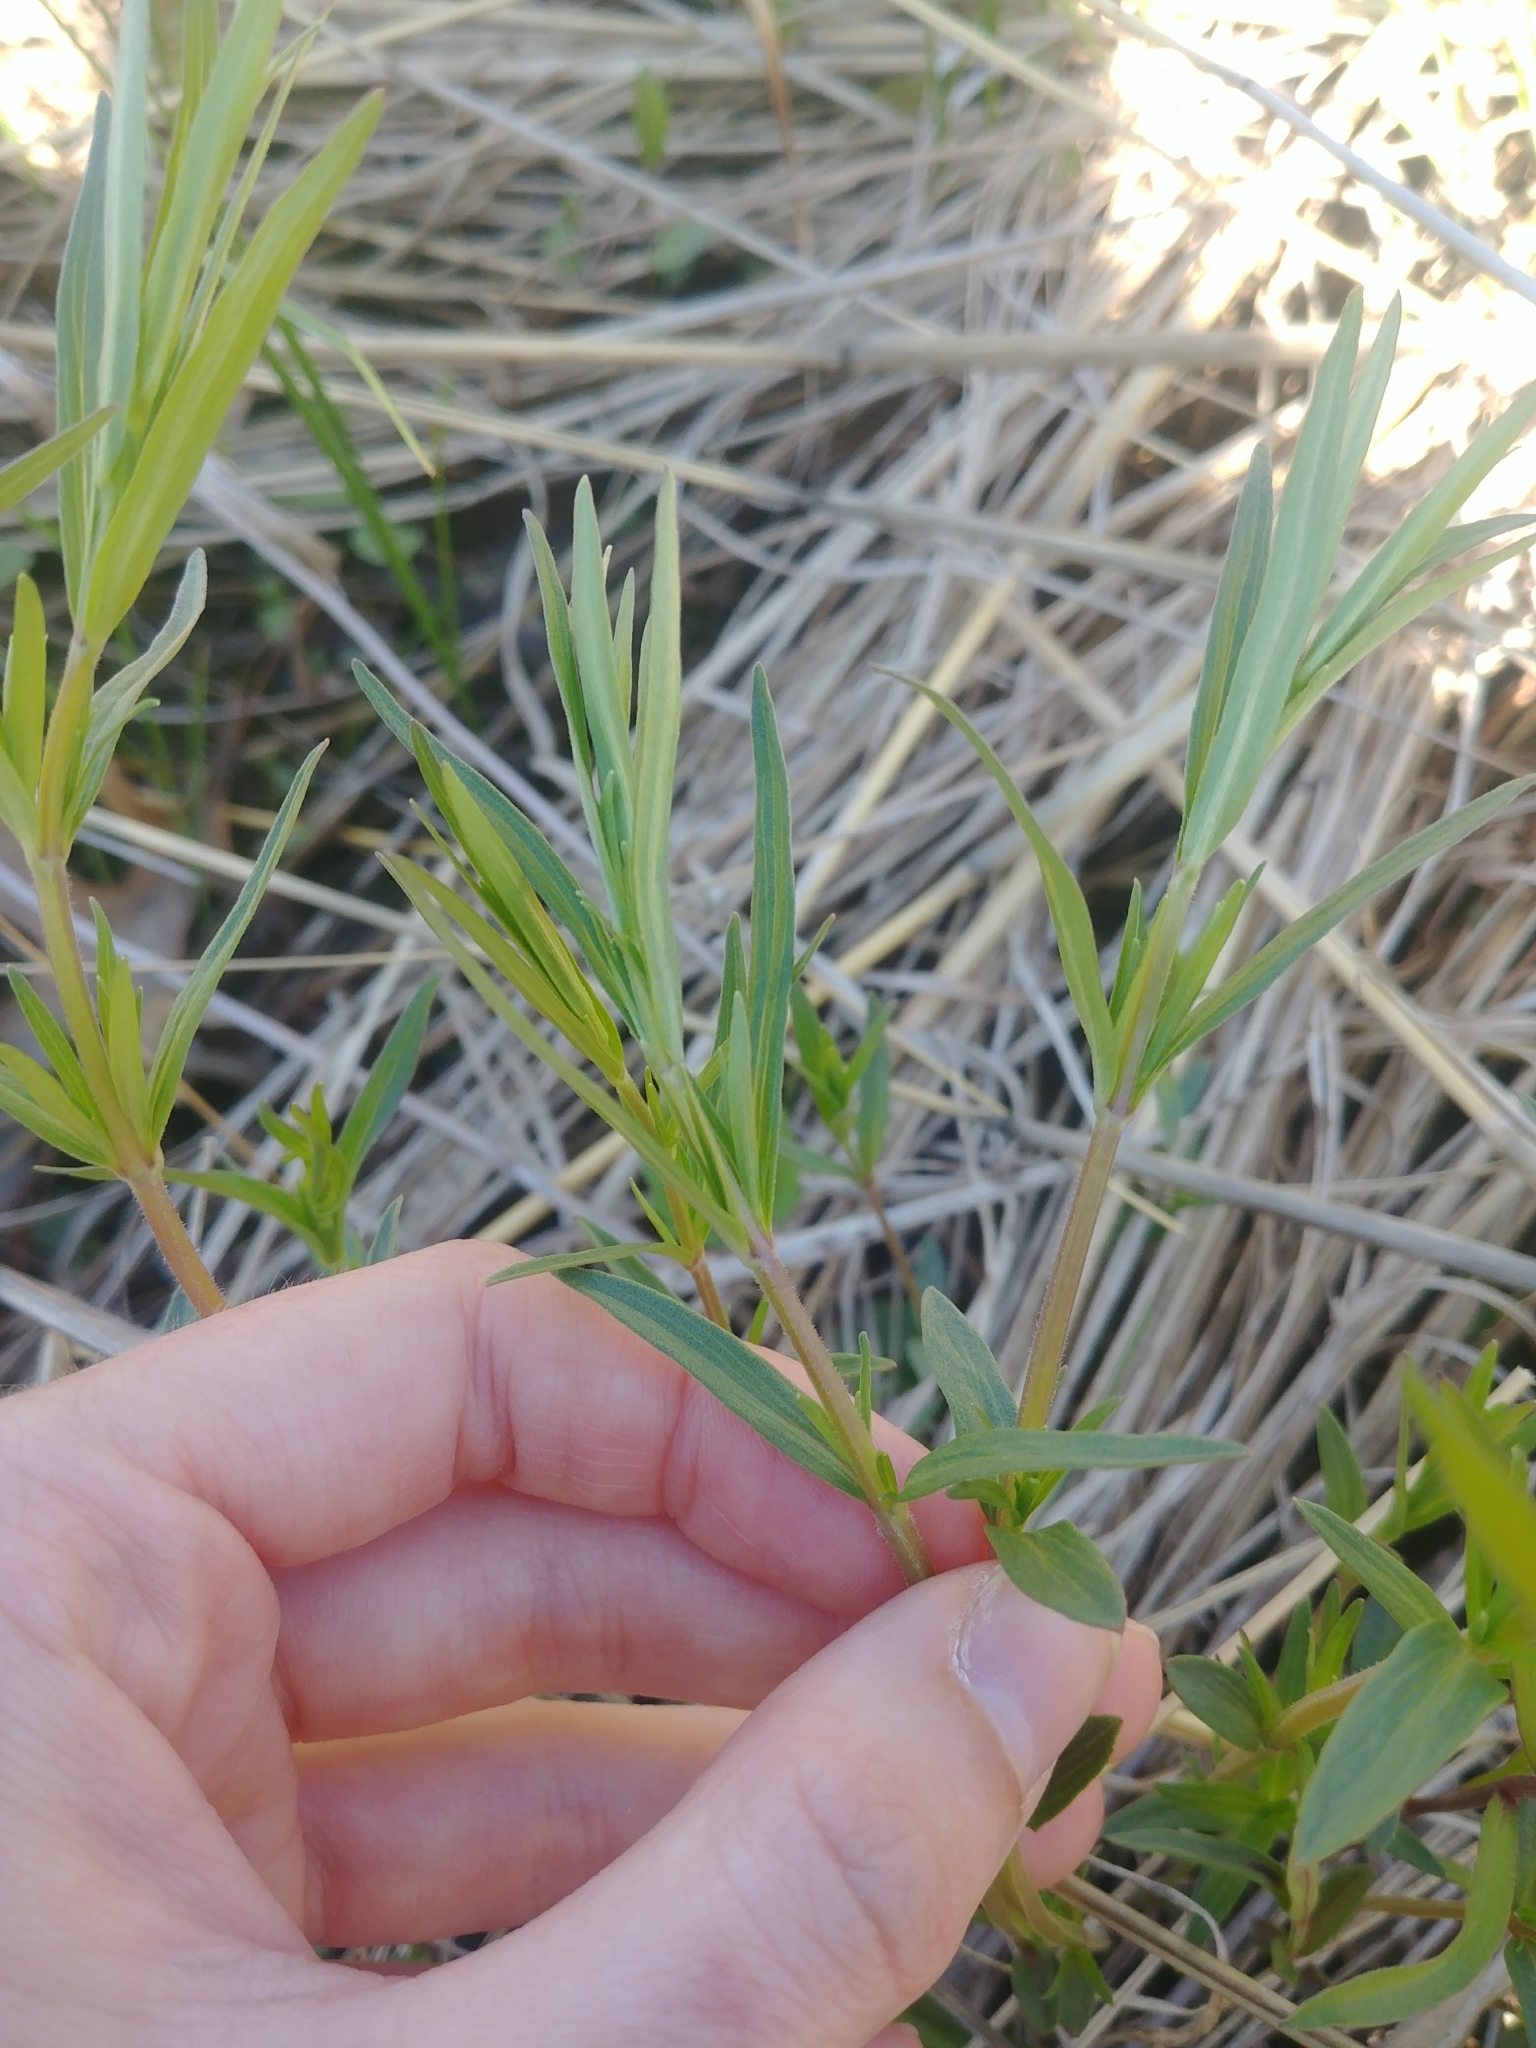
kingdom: Plantae
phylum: Tracheophyta
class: Magnoliopsida
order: Lamiales
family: Lamiaceae
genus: Pycnanthemum
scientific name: Pycnanthemum virginianum
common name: Virginia mountain-mint
